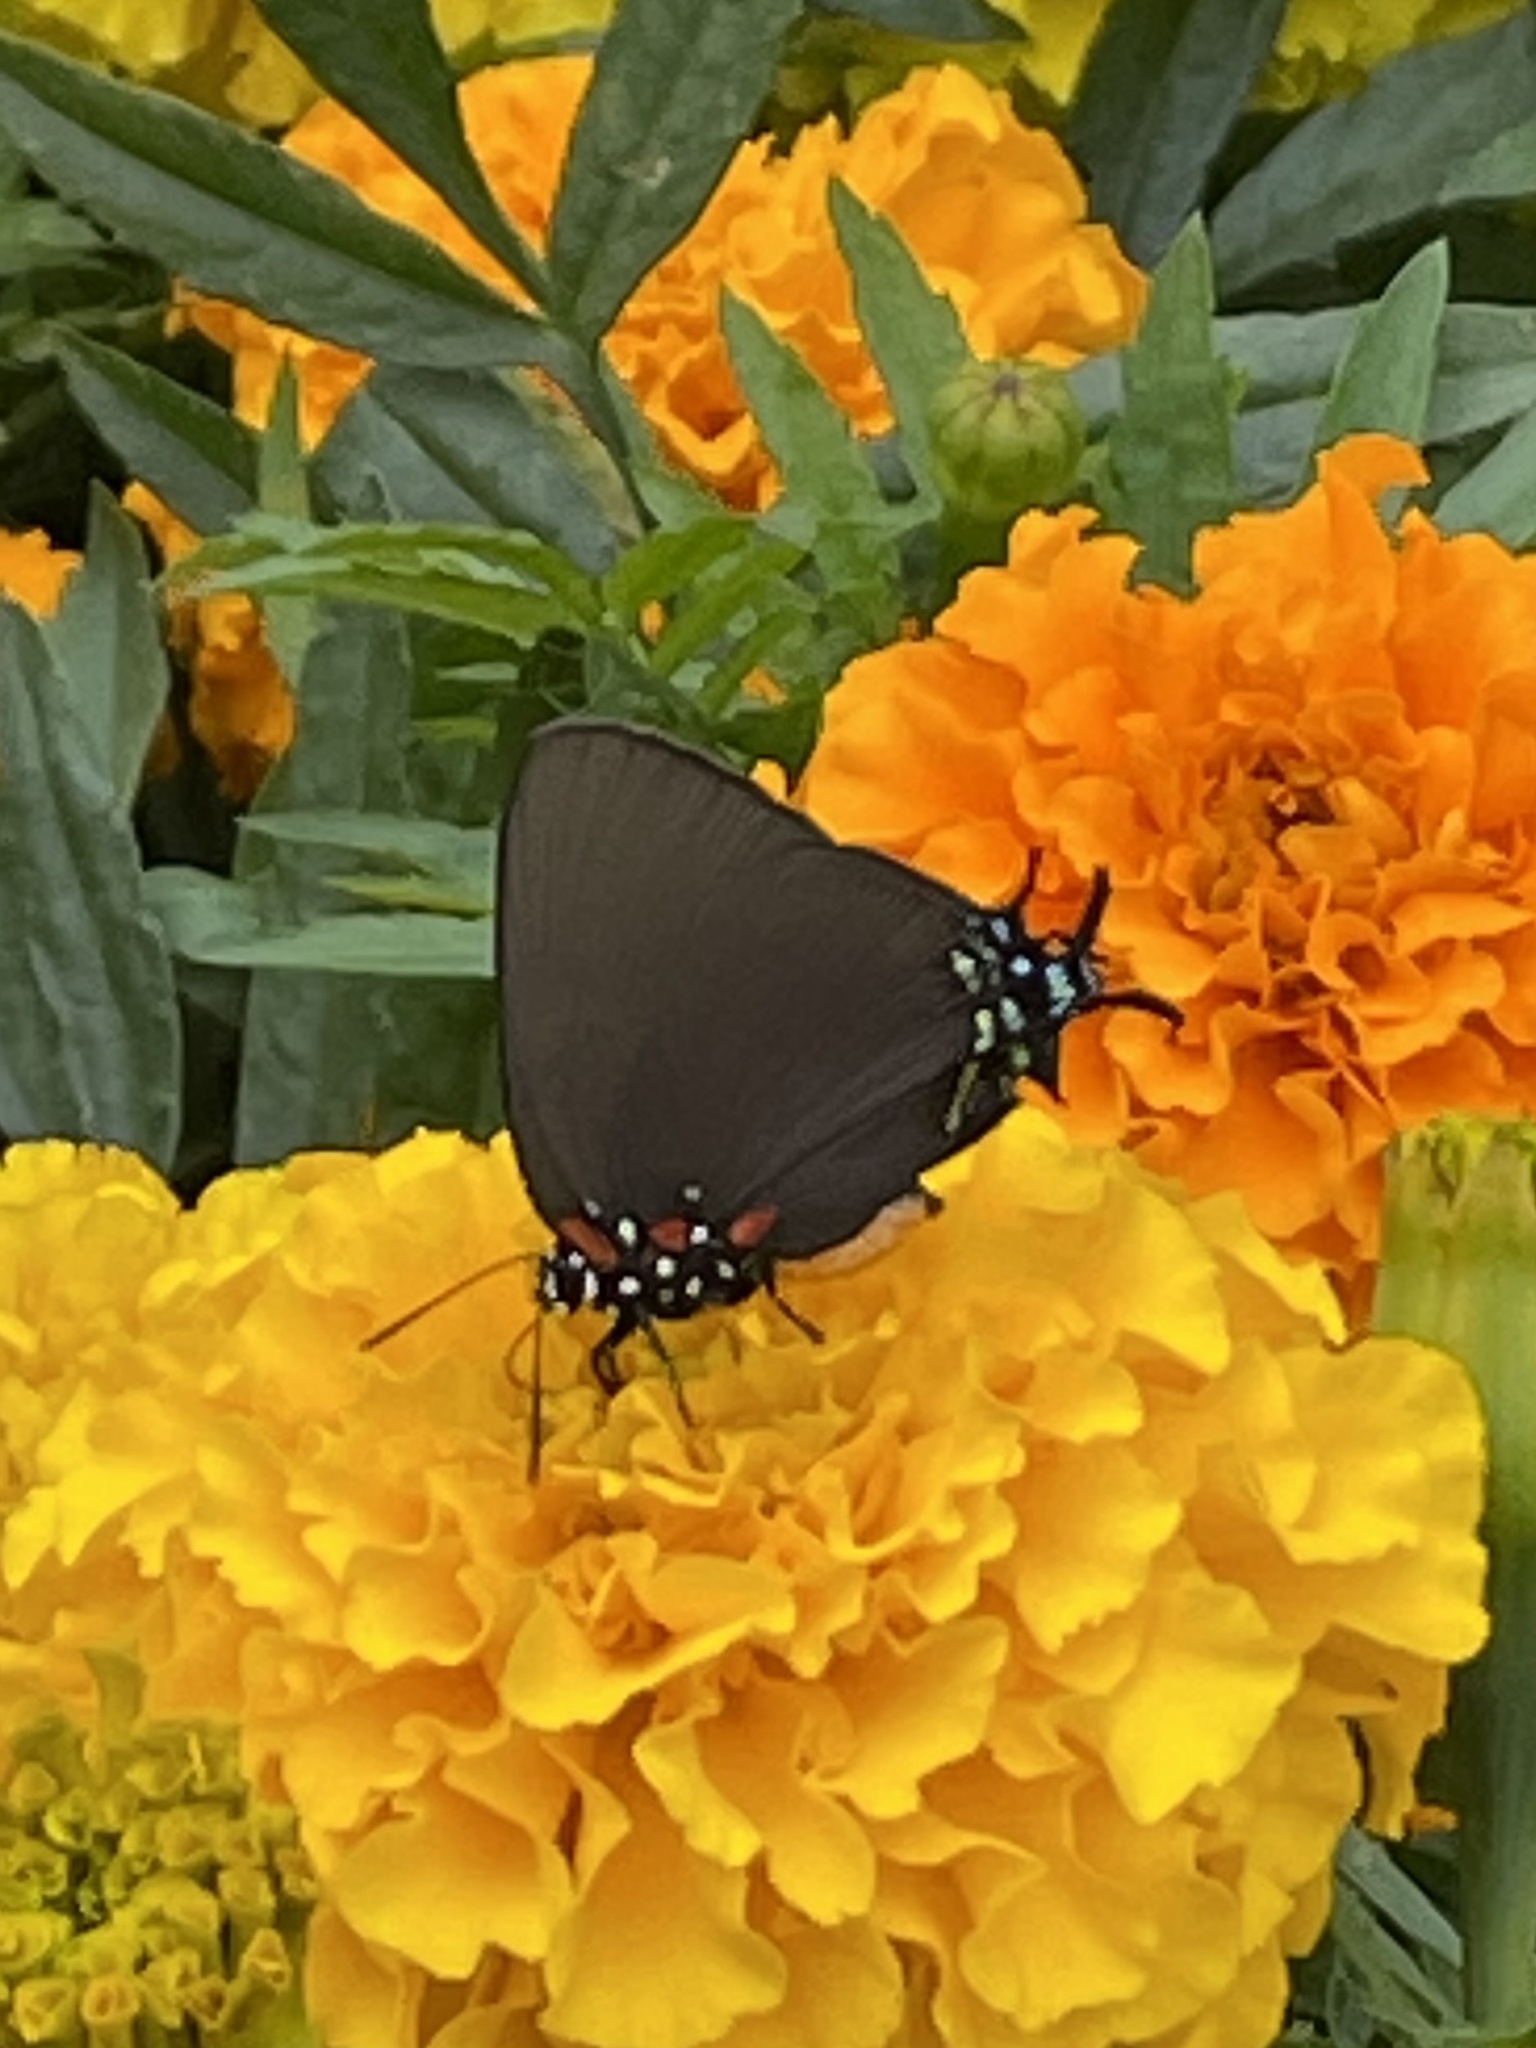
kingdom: Animalia
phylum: Arthropoda
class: Insecta
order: Lepidoptera
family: Lycaenidae
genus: Atlides
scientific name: Atlides halesus
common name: Great purple hairstreak
